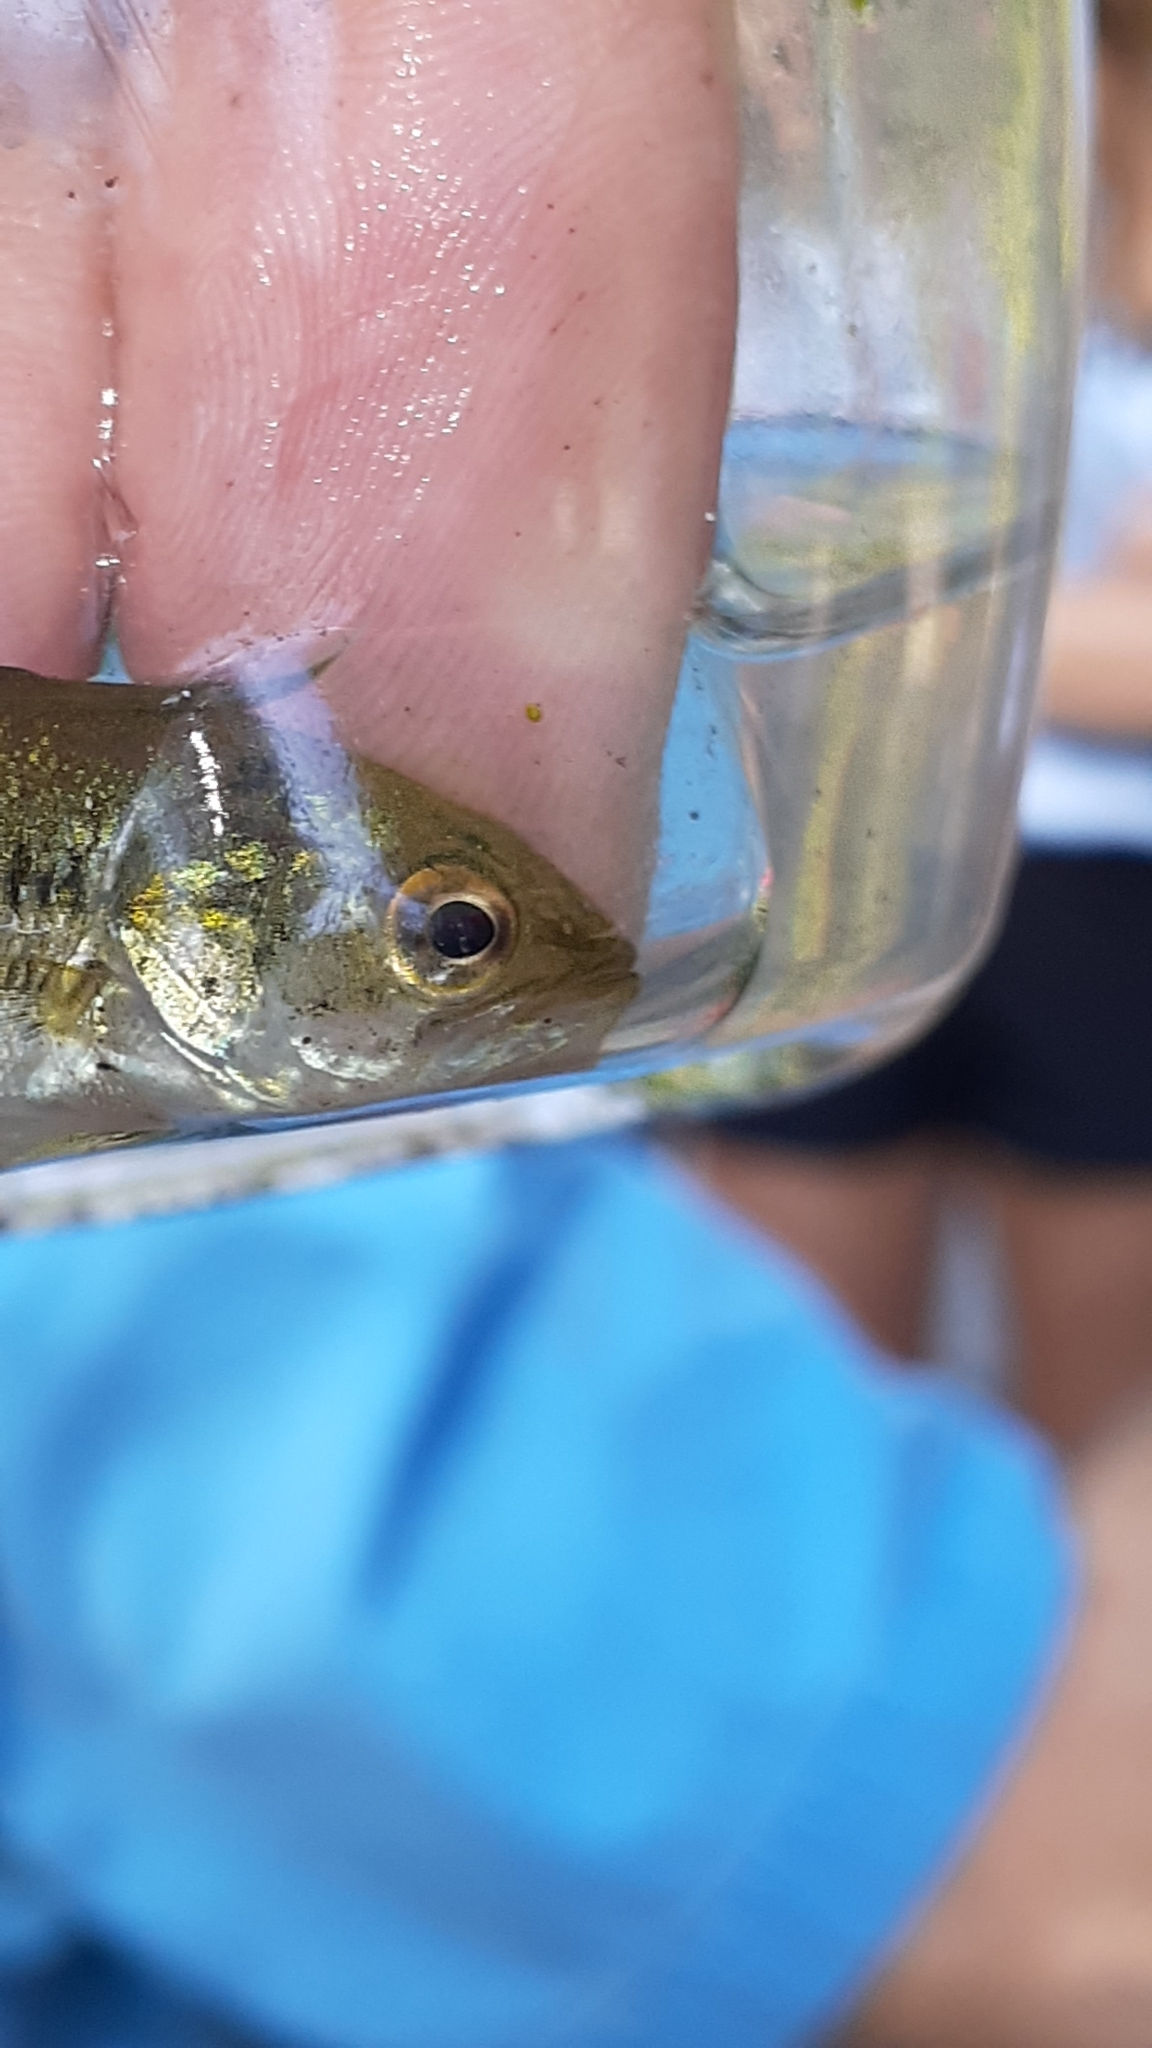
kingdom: Animalia
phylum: Chordata
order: Perciformes
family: Centrarchidae
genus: Micropterus
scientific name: Micropterus
